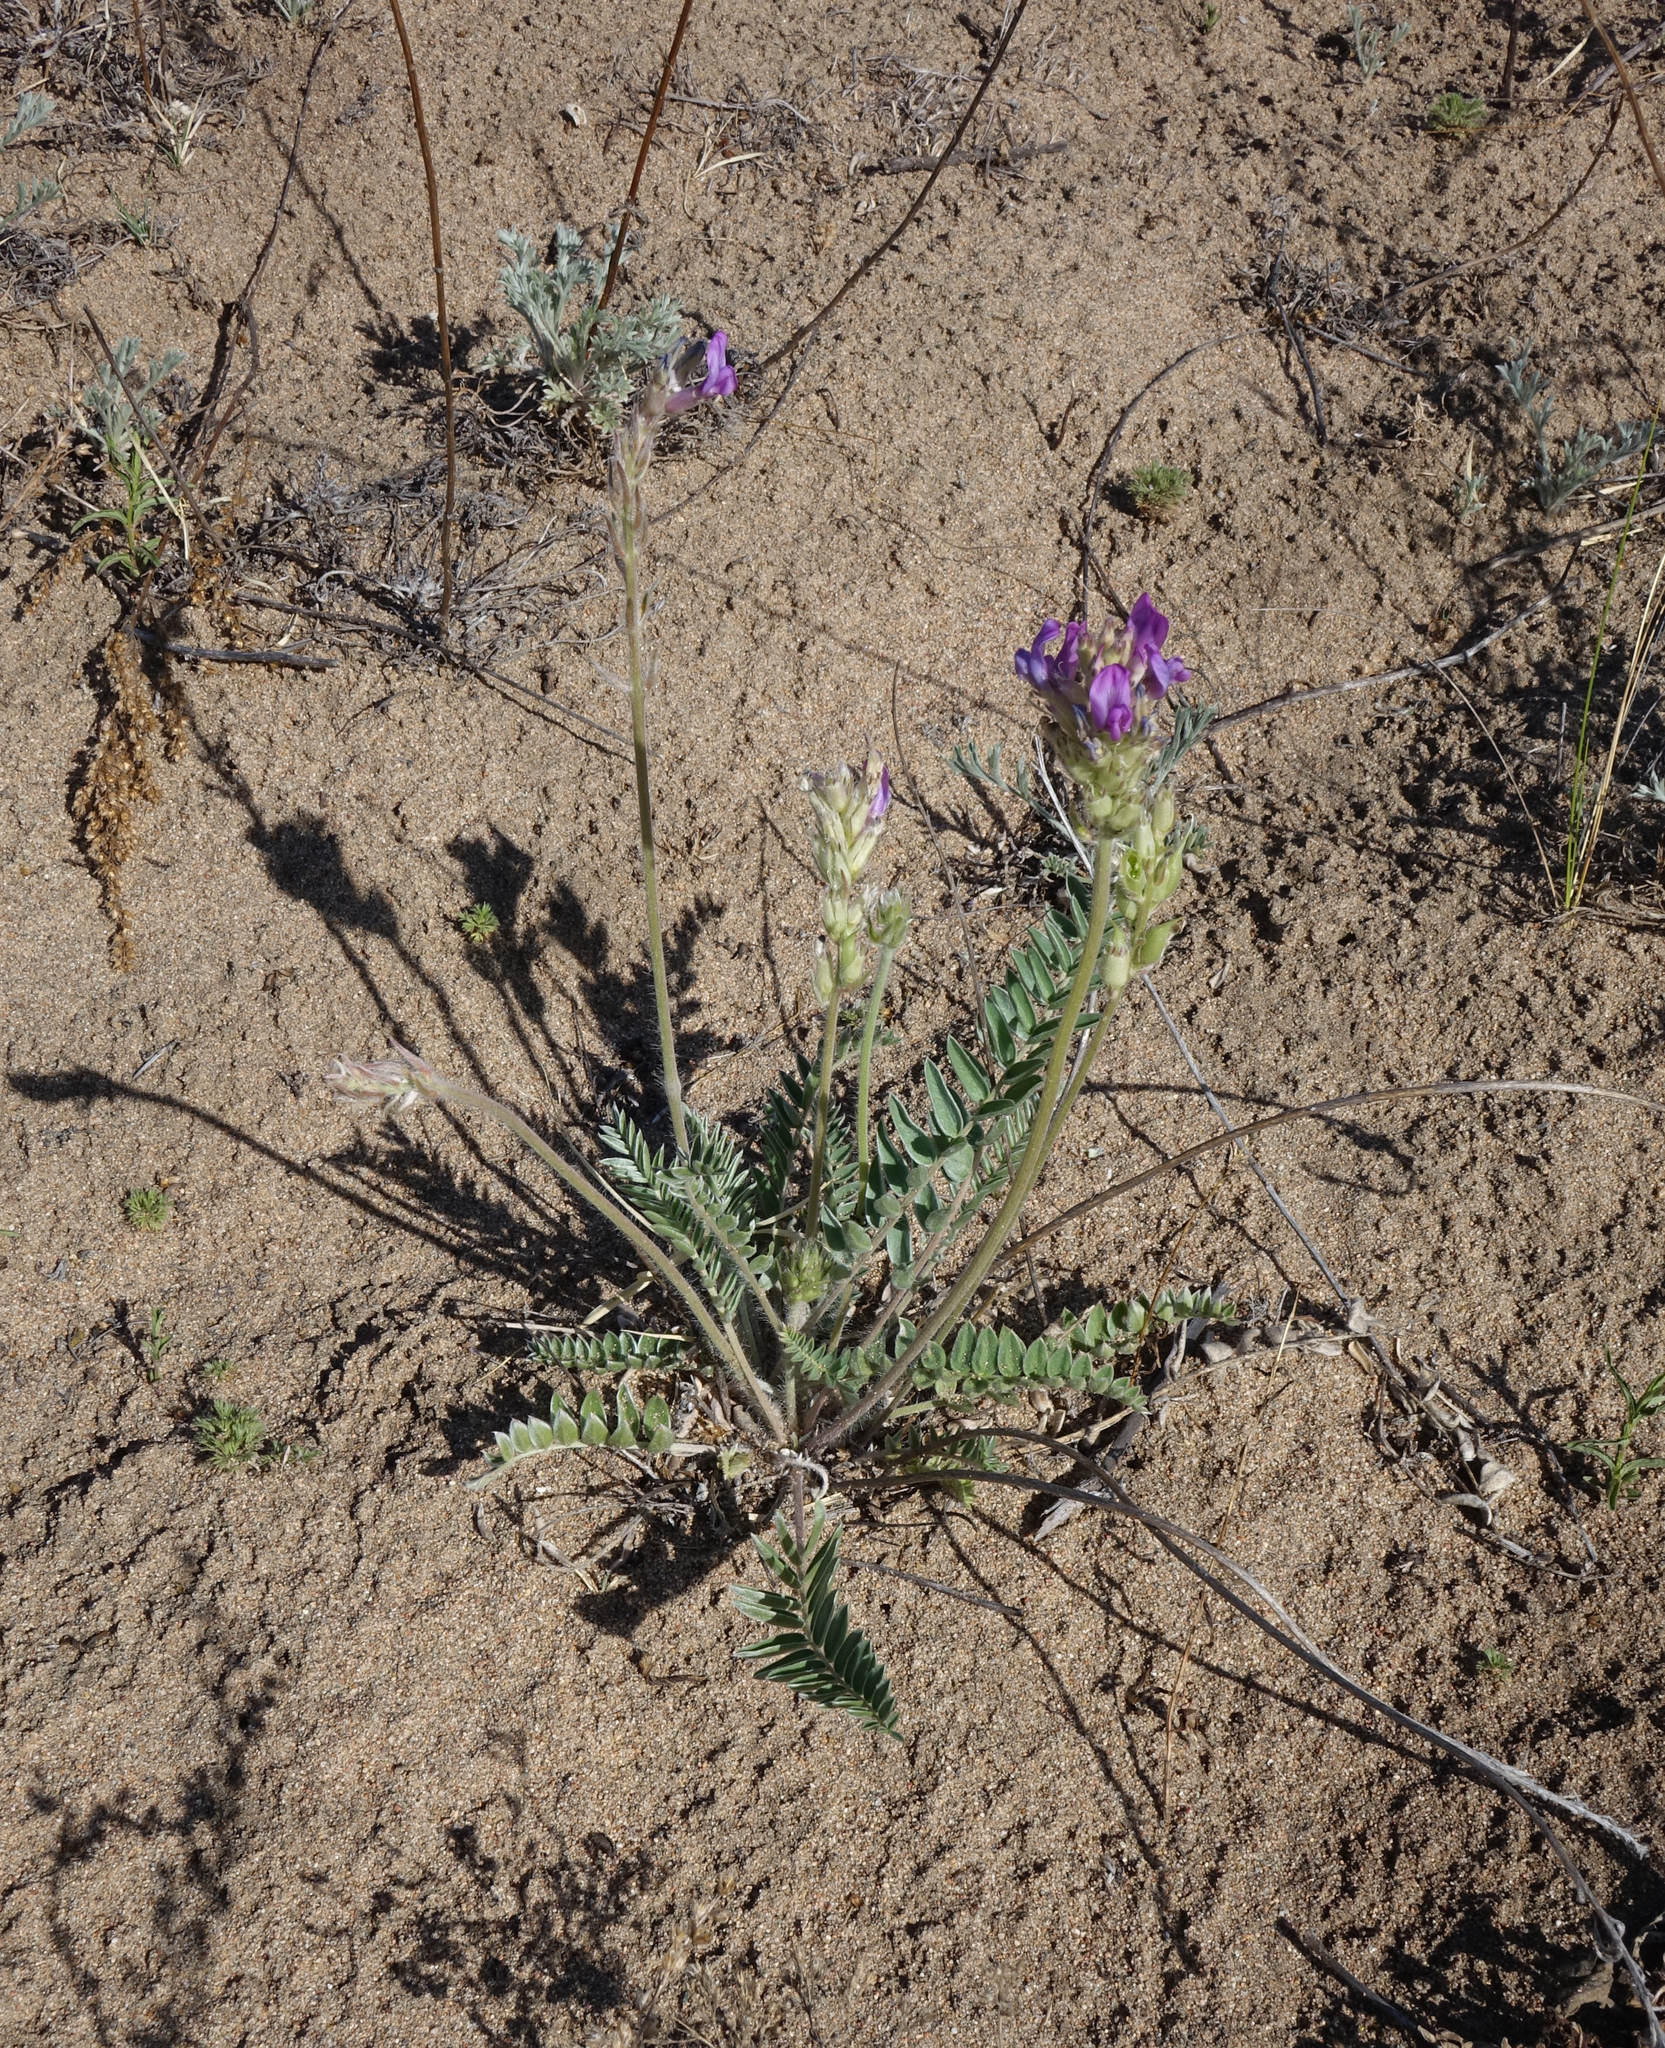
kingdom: Plantae
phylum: Tracheophyta
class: Magnoliopsida
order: Fabales
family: Fabaceae
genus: Oxytropis
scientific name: Oxytropis strobilacea
